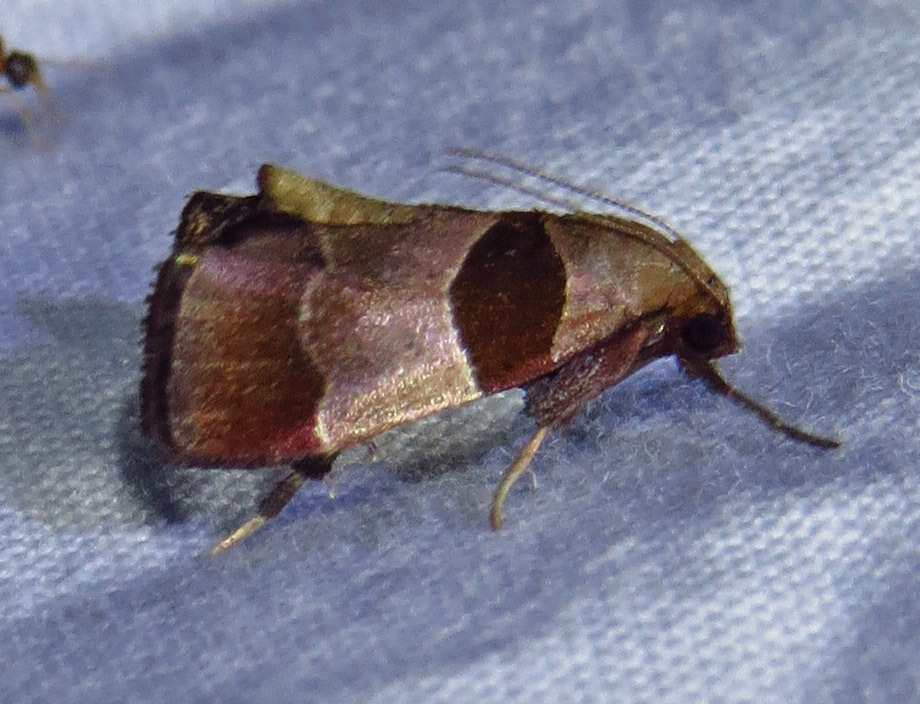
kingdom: Animalia
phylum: Arthropoda
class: Insecta
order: Lepidoptera
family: Pyralidae
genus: Tosale
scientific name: Tosale oviplagalis
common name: Dimorphic tosale moth
